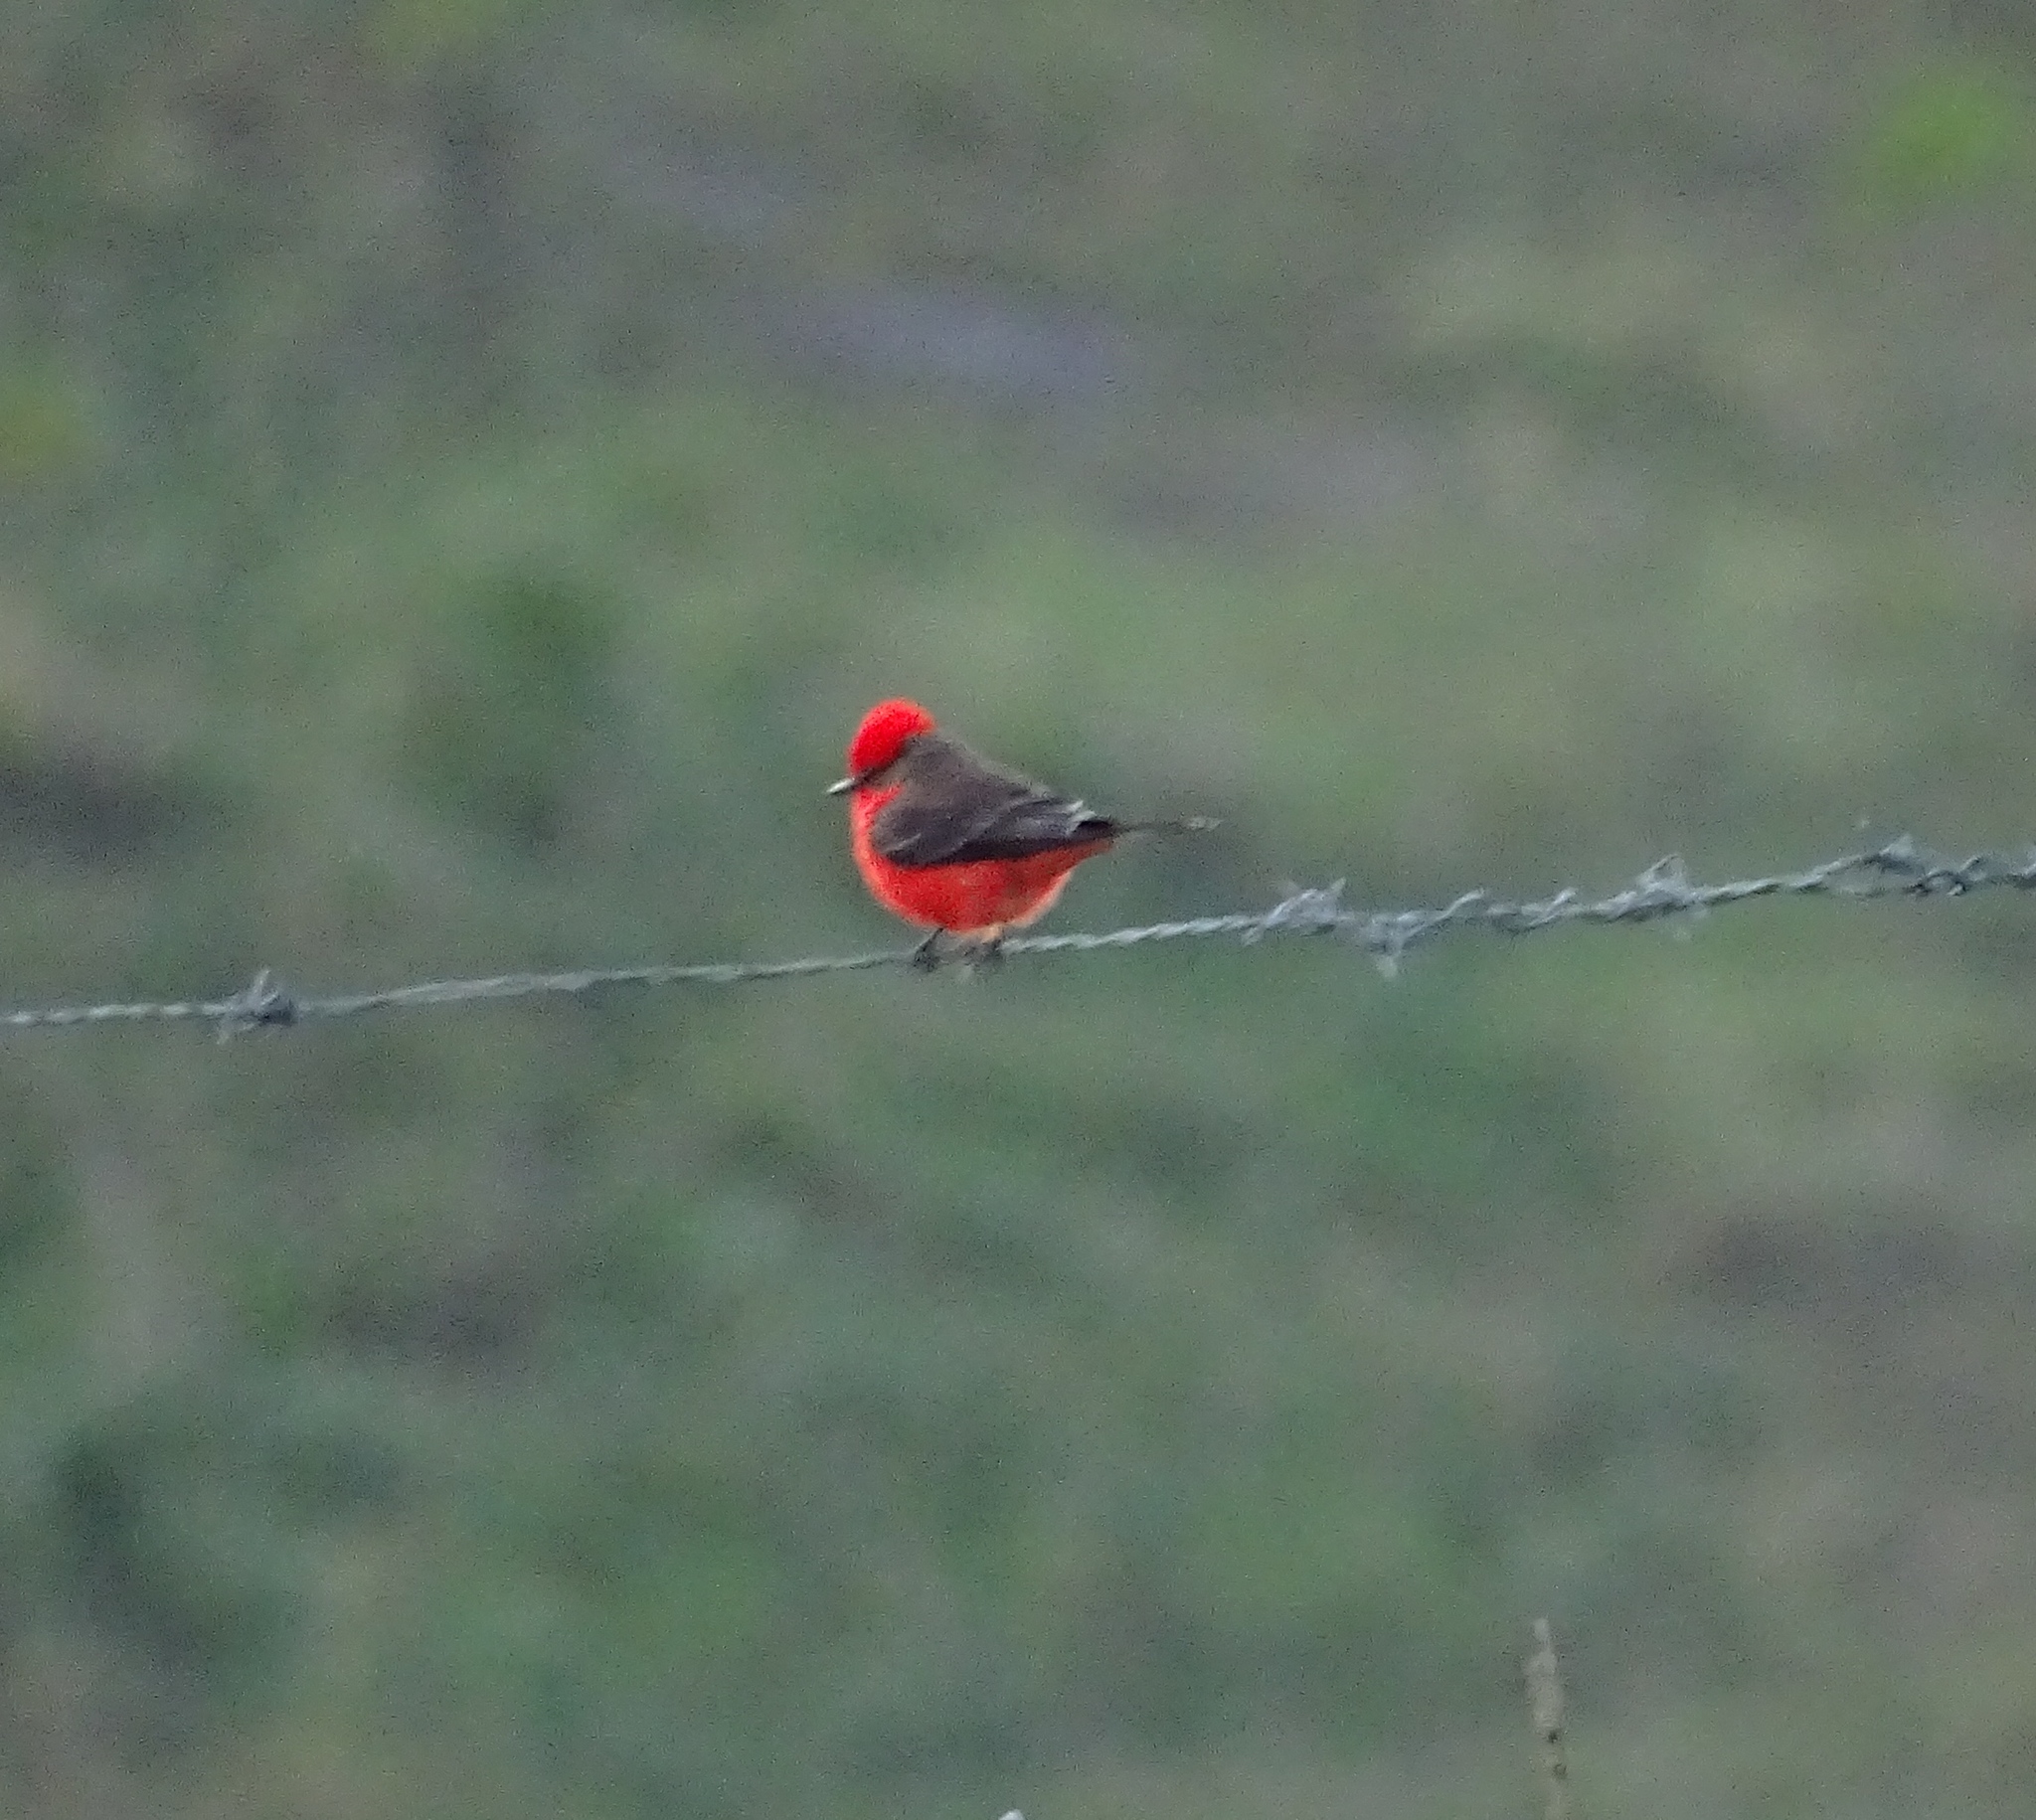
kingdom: Animalia
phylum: Chordata
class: Aves
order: Passeriformes
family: Tyrannidae
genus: Pyrocephalus
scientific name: Pyrocephalus rubinus
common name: Vermilion flycatcher
